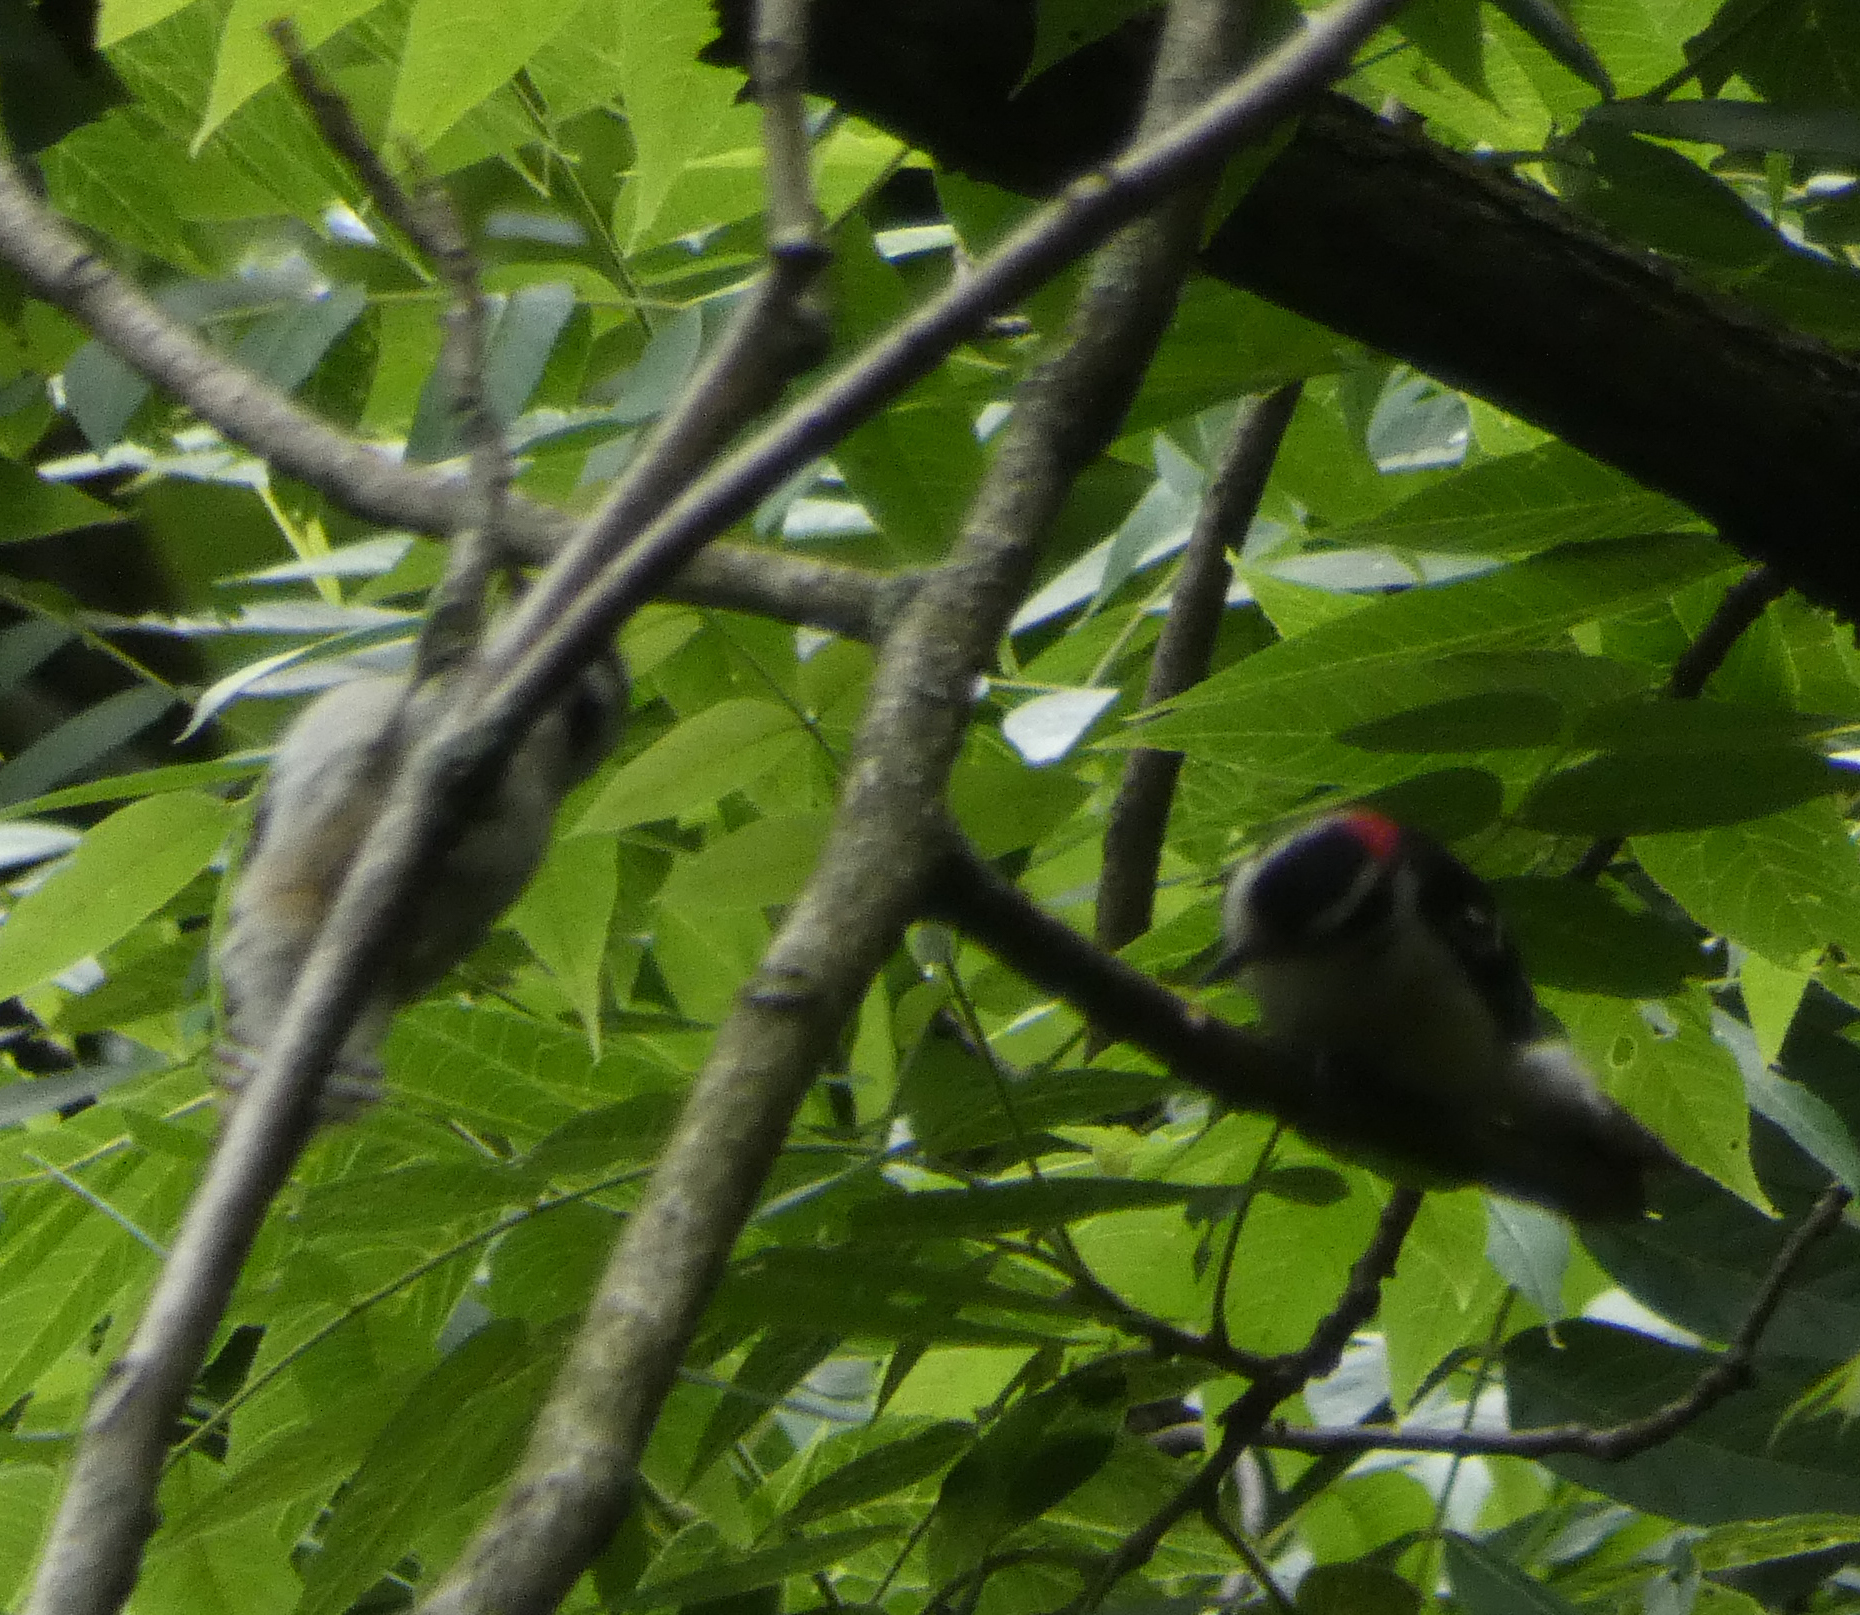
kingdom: Animalia
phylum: Chordata
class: Aves
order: Piciformes
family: Picidae
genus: Dryobates
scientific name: Dryobates pubescens
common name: Downy woodpecker
